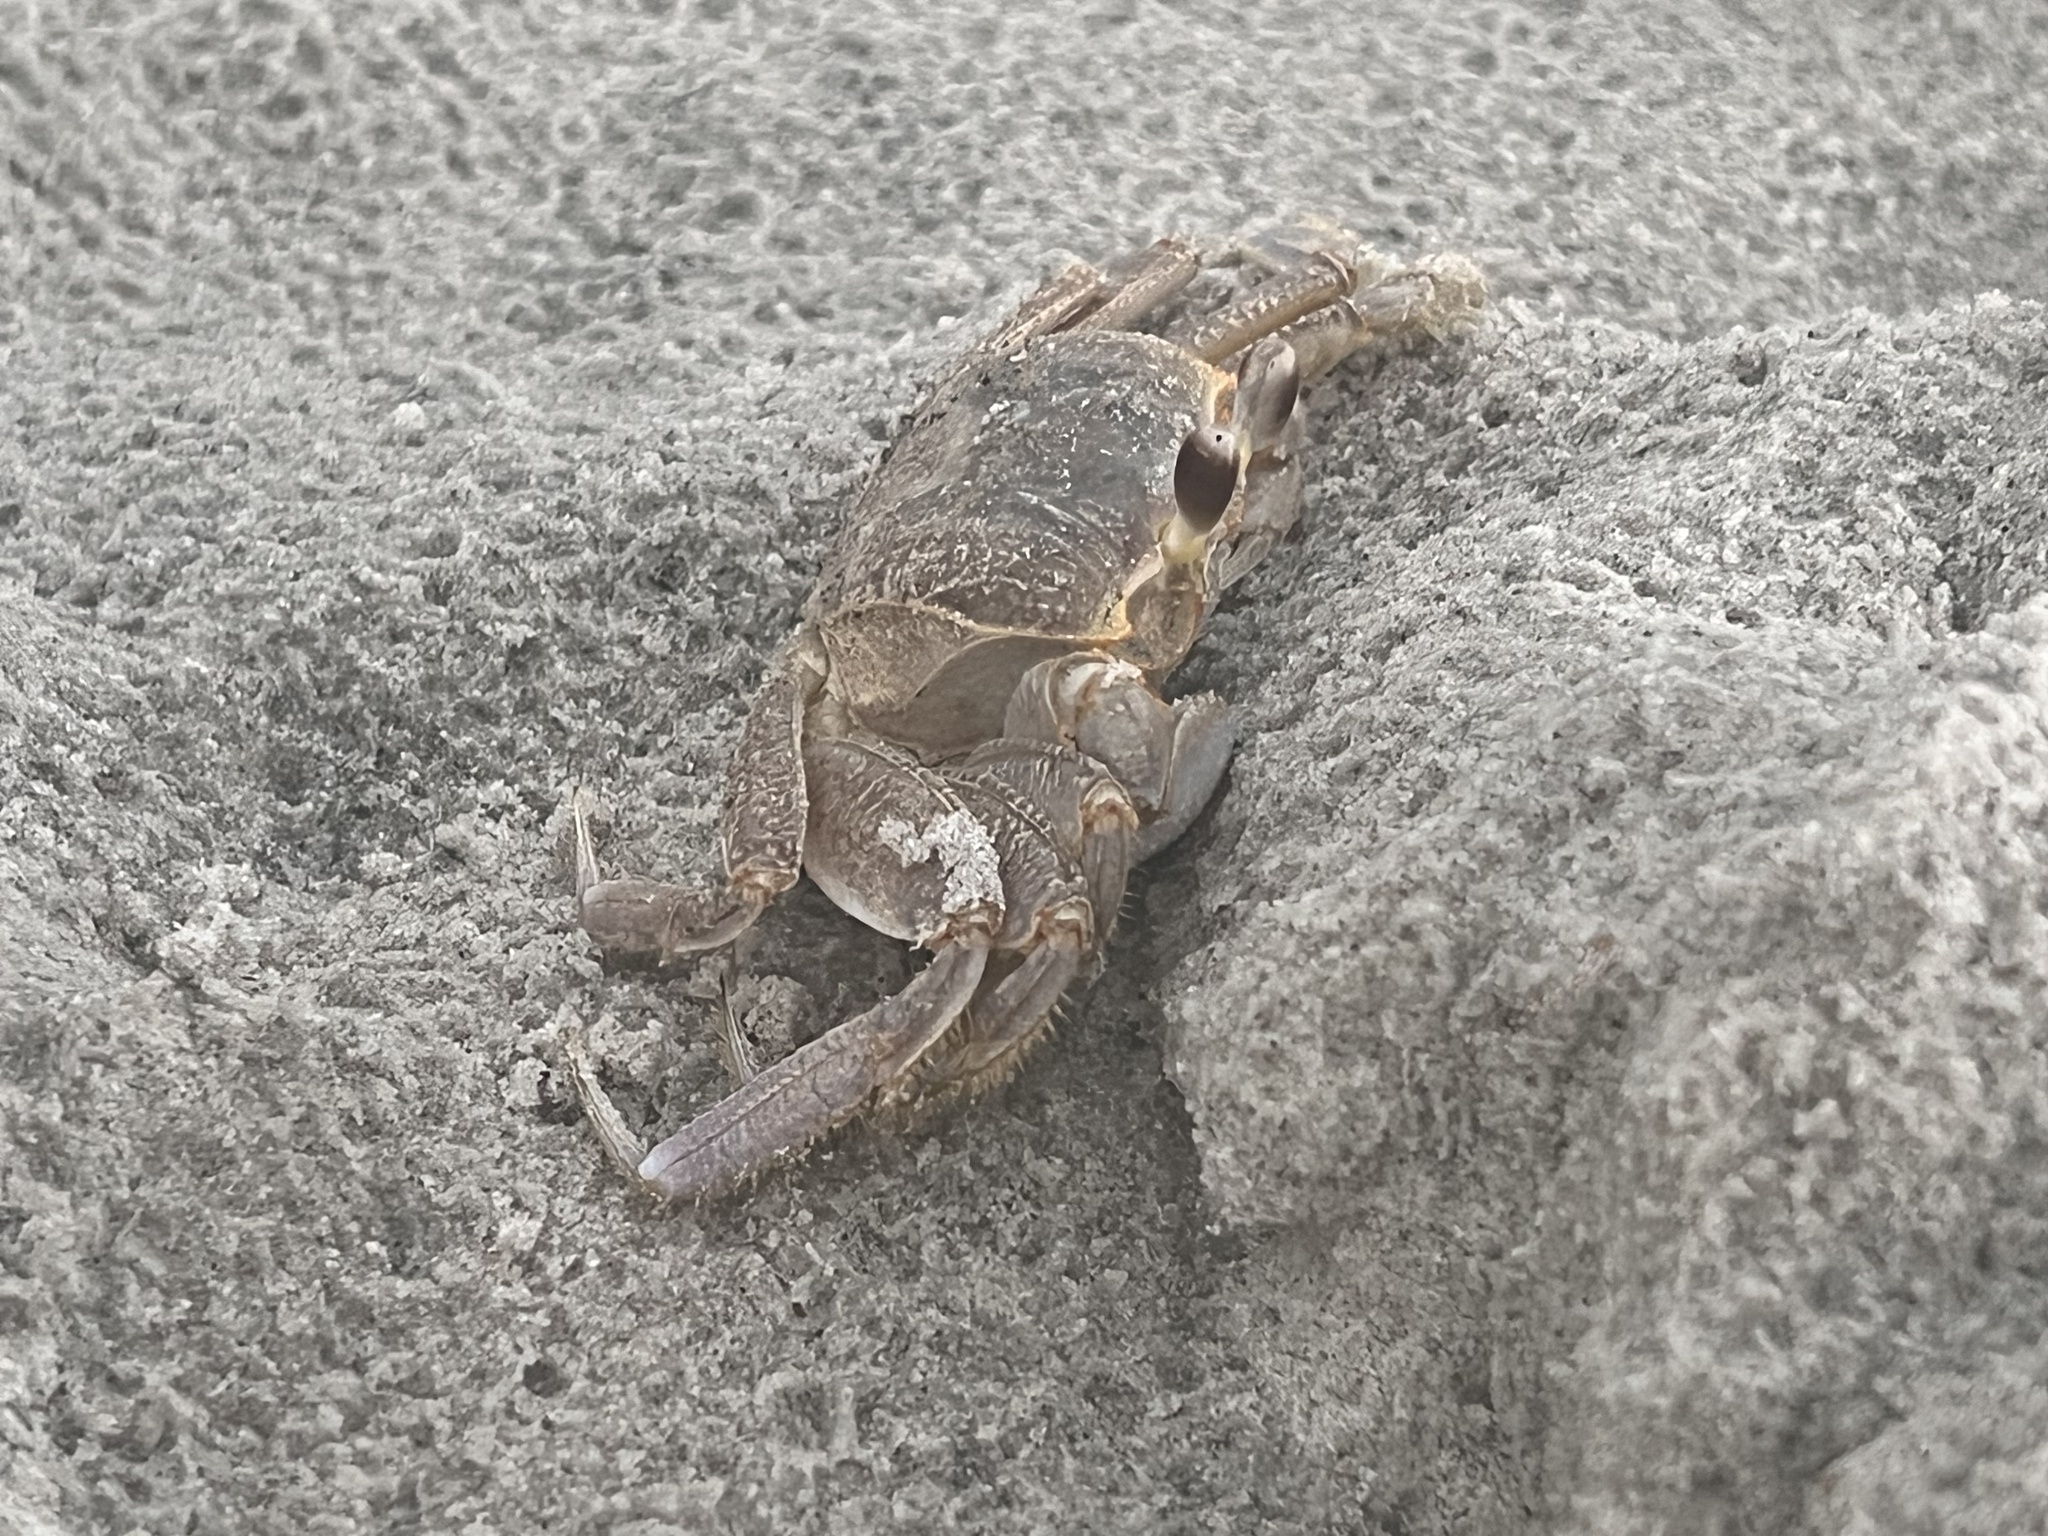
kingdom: Animalia
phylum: Arthropoda
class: Malacostraca
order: Decapoda
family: Ocypodidae
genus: Ocypode
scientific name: Ocypode quadrata
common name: Ghost crab
